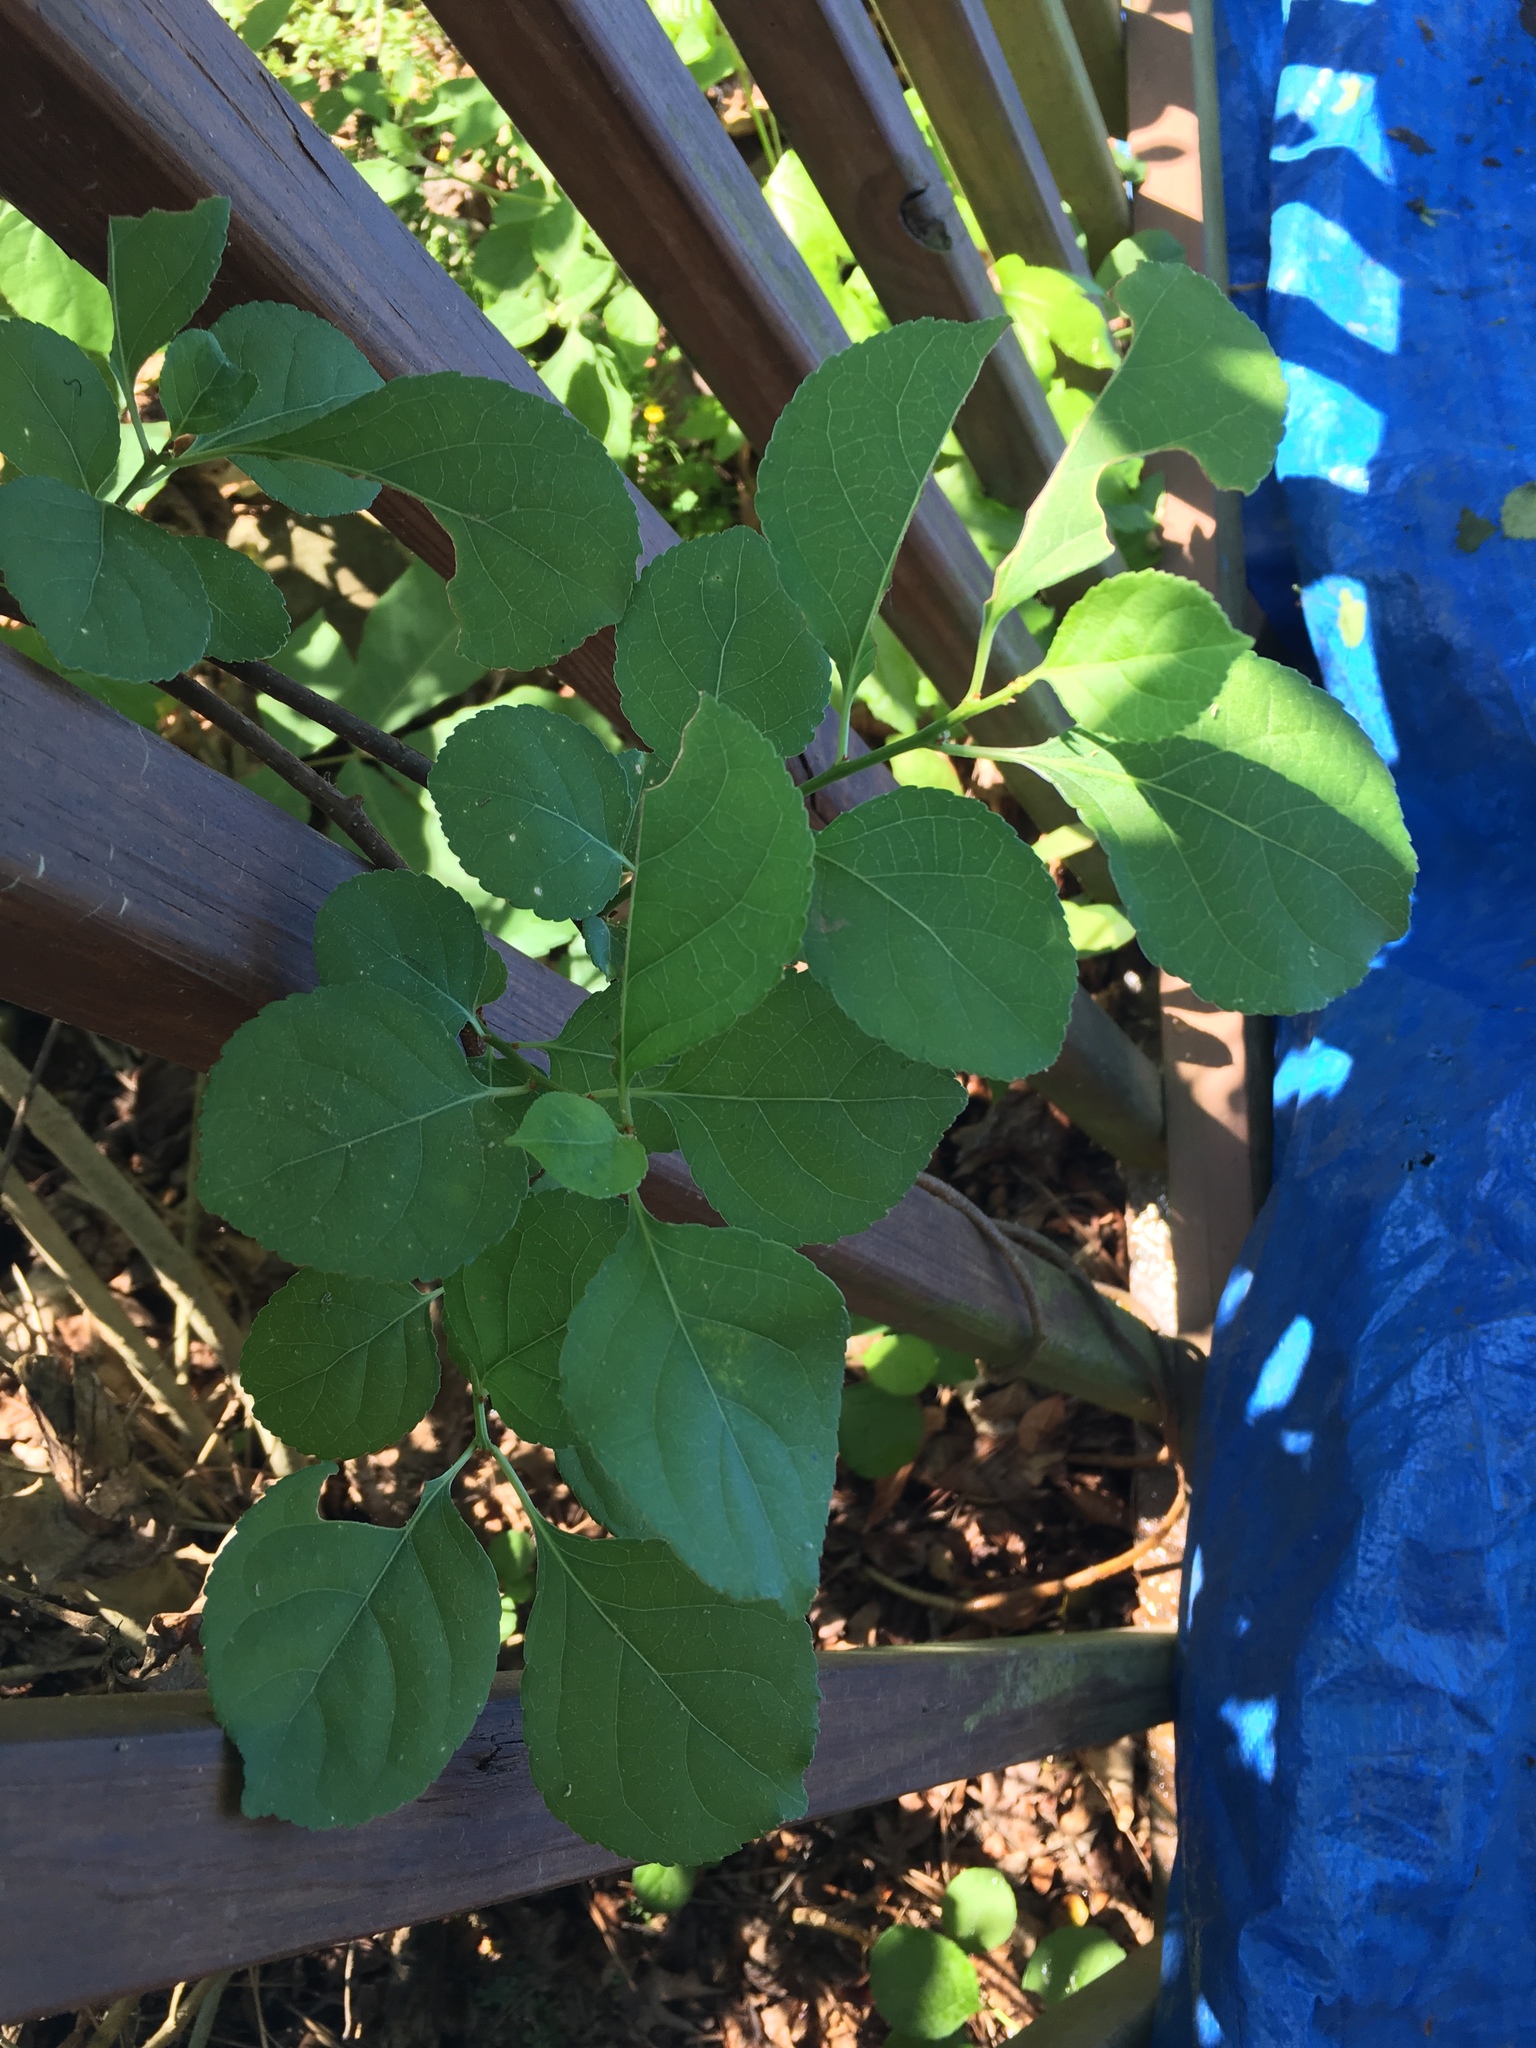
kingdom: Plantae
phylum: Tracheophyta
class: Magnoliopsida
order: Celastrales
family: Celastraceae
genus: Celastrus
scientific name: Celastrus orbiculatus
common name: Oriental bittersweet
